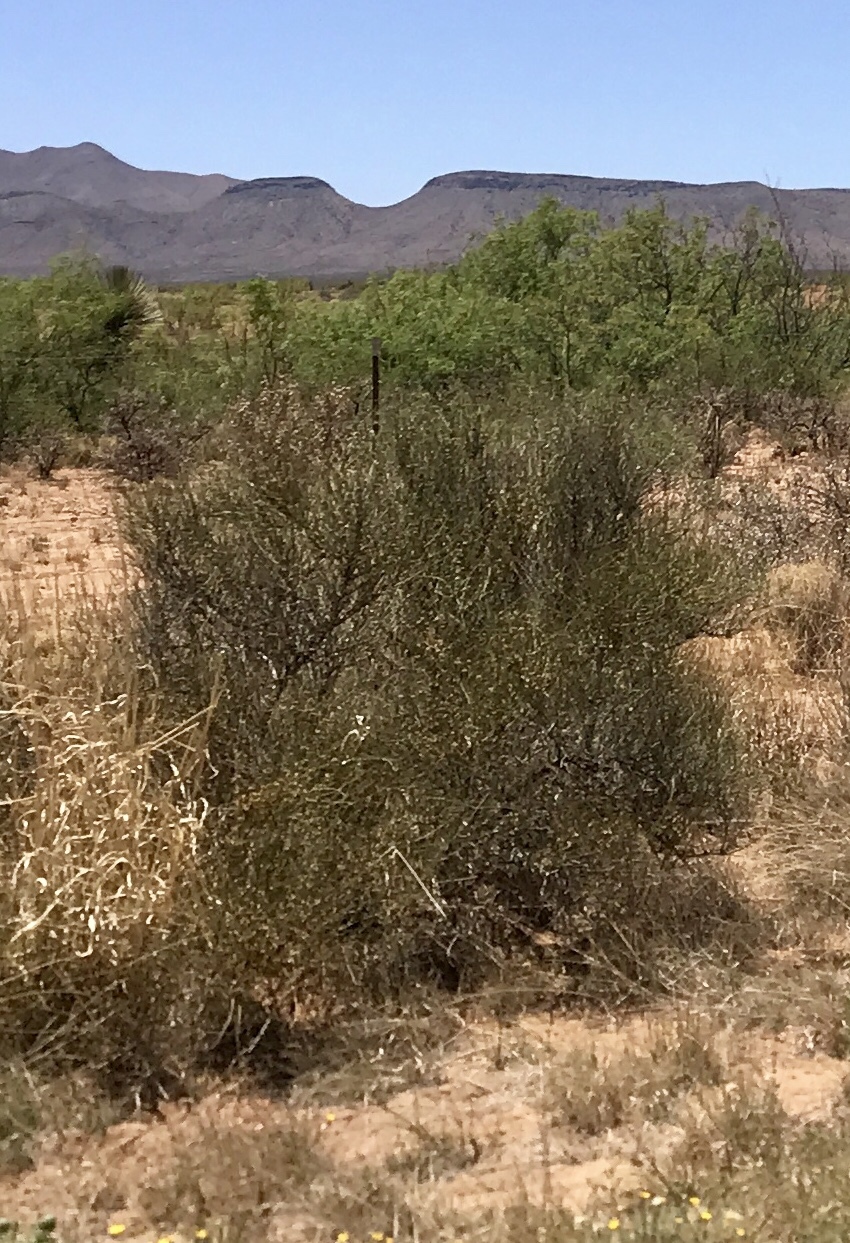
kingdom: Plantae
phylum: Tracheophyta
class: Gnetopsida
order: Ephedrales
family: Ephedraceae
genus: Ephedra
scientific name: Ephedra trifurca
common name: Mexican-tea
